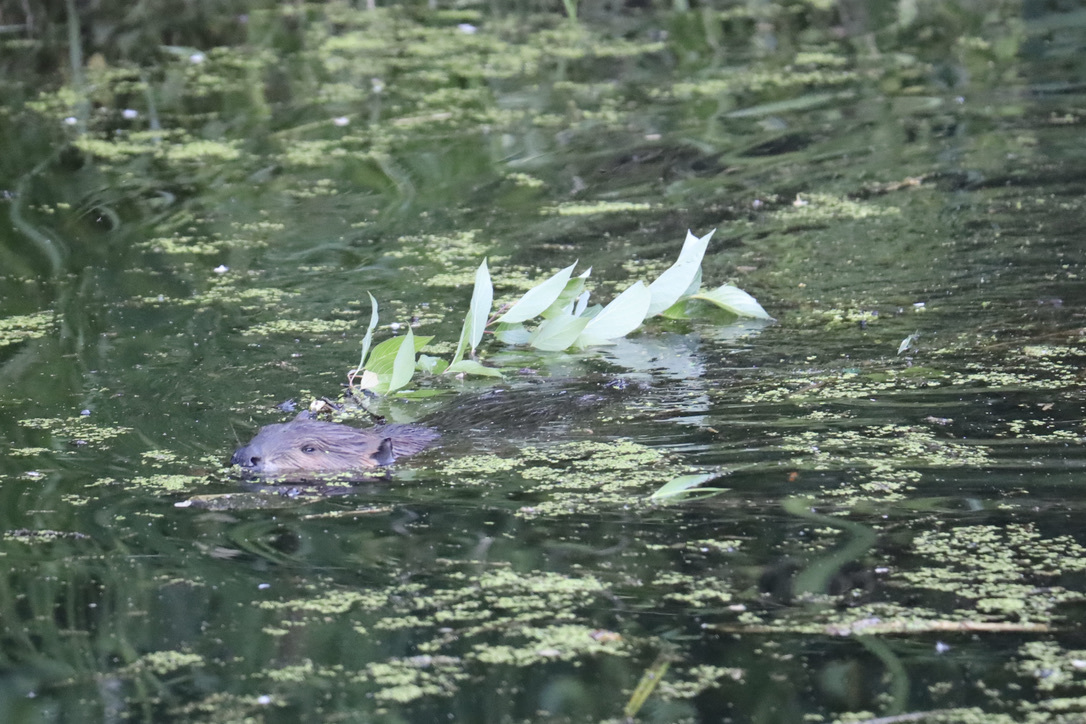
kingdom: Animalia
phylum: Chordata
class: Mammalia
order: Rodentia
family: Castoridae
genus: Castor
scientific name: Castor canadensis
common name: American beaver
